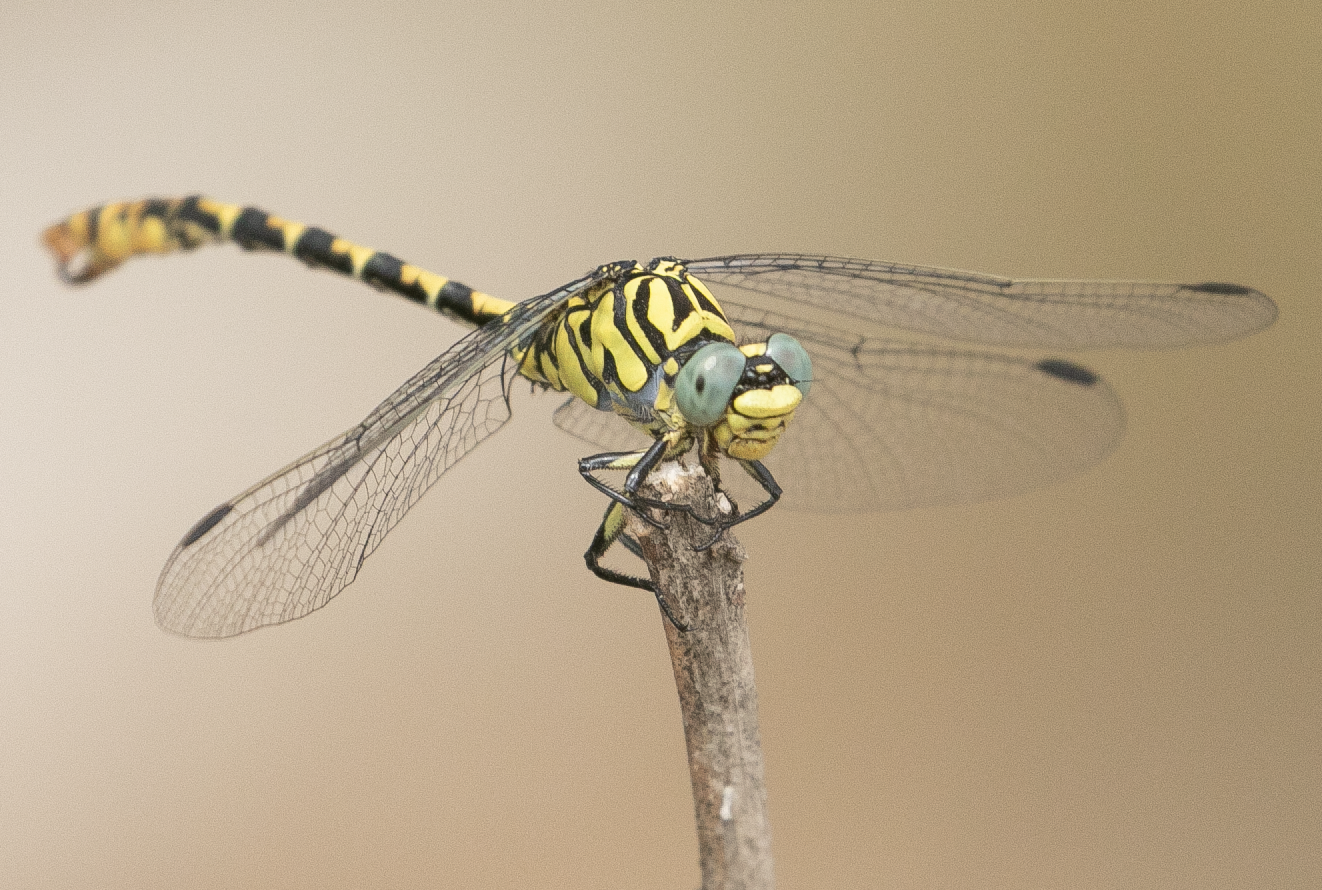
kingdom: Animalia
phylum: Arthropoda
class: Insecta
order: Odonata
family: Gomphidae
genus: Onychogomphus
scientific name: Onychogomphus forcipatus
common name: Small pincertail
